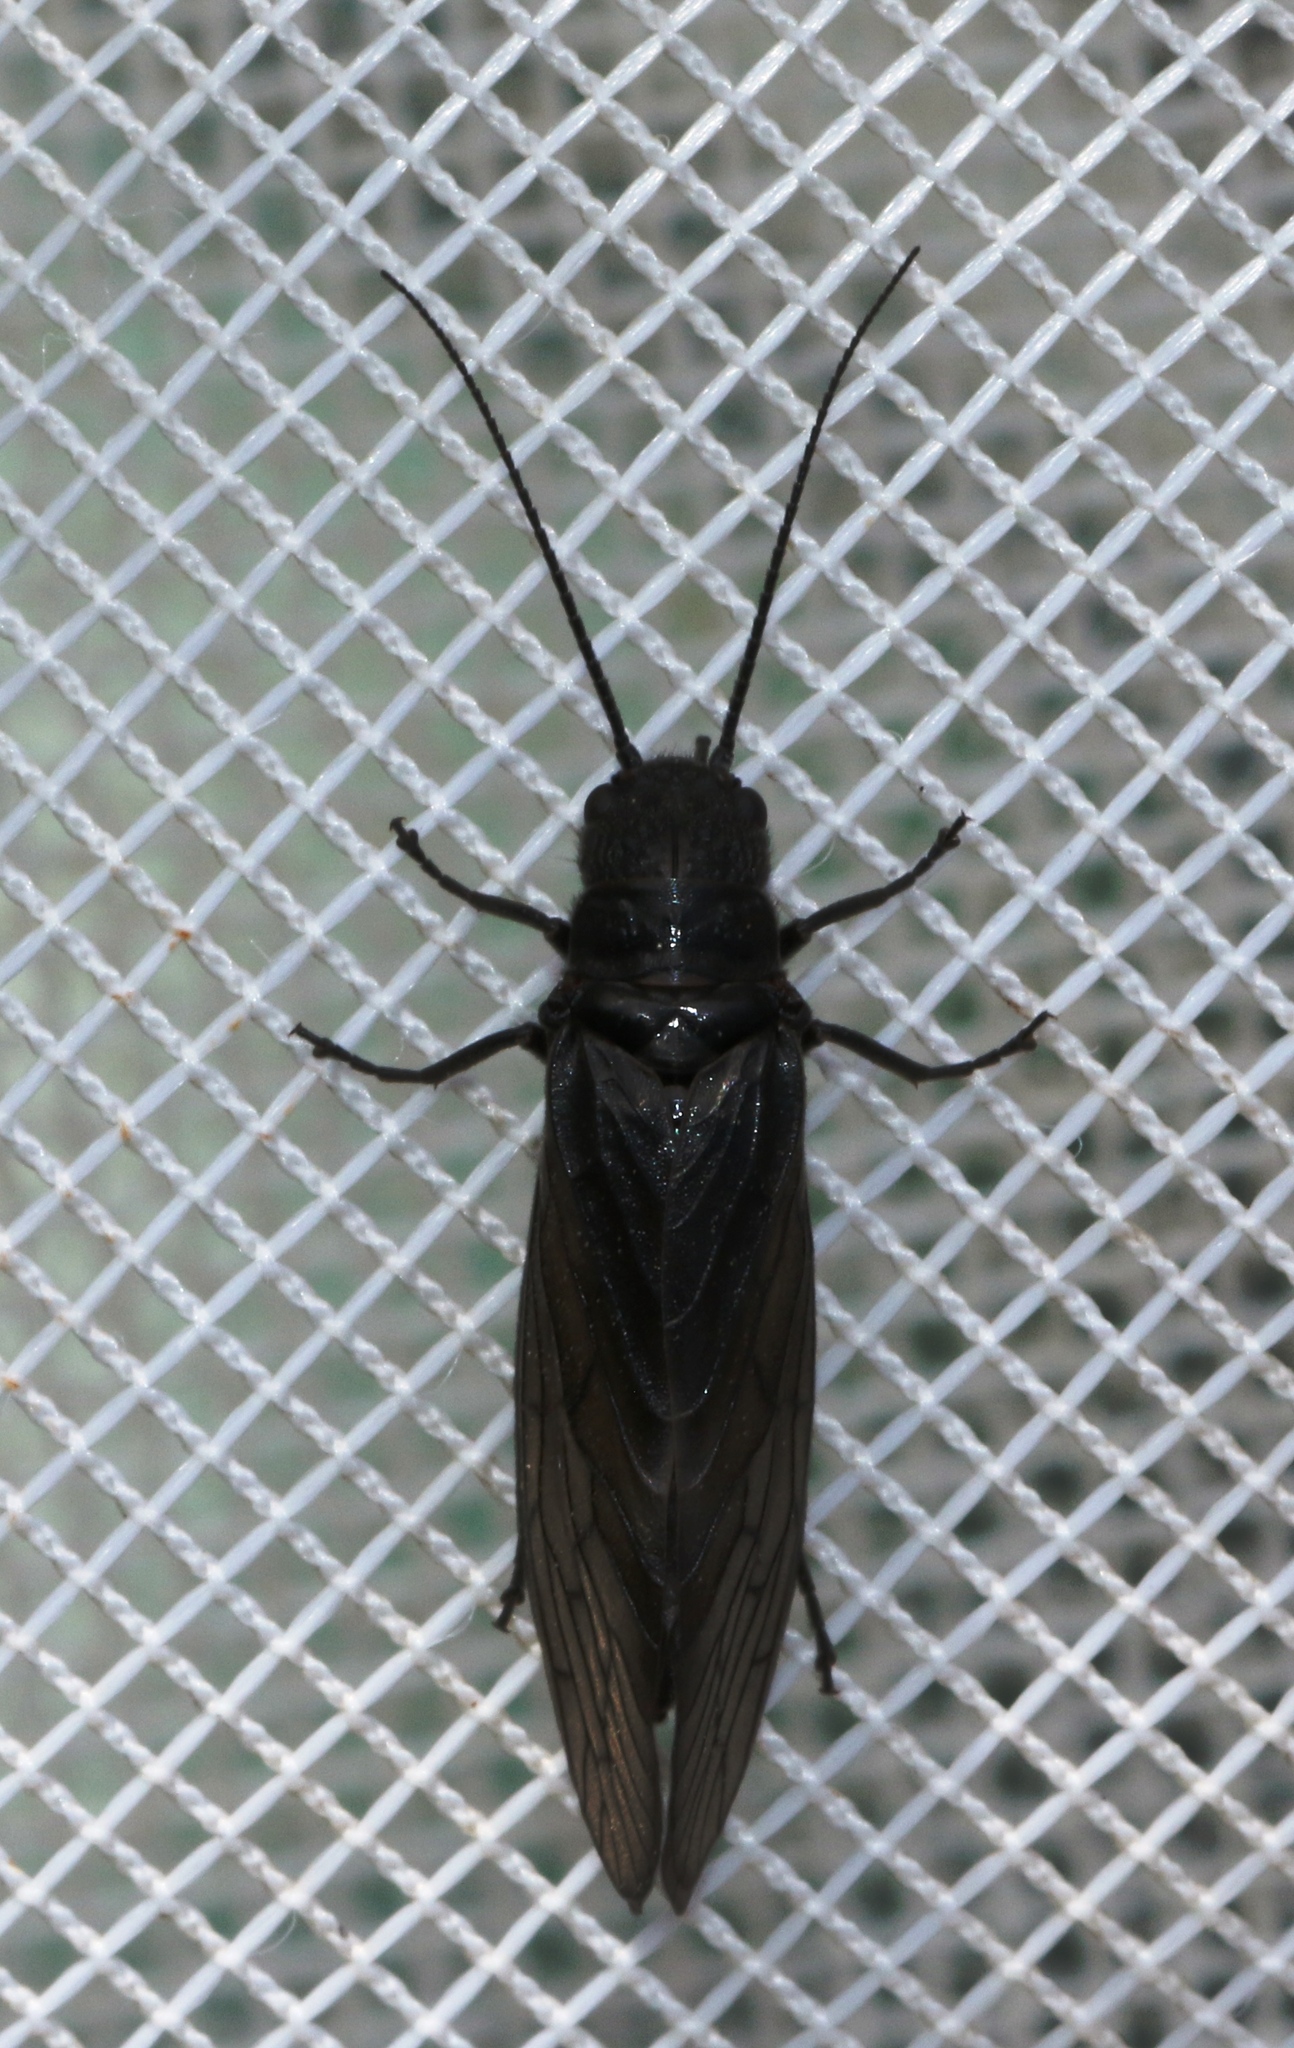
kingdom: Animalia
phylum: Arthropoda
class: Insecta
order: Megaloptera
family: Sialidae
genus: Sialis
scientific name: Sialis
